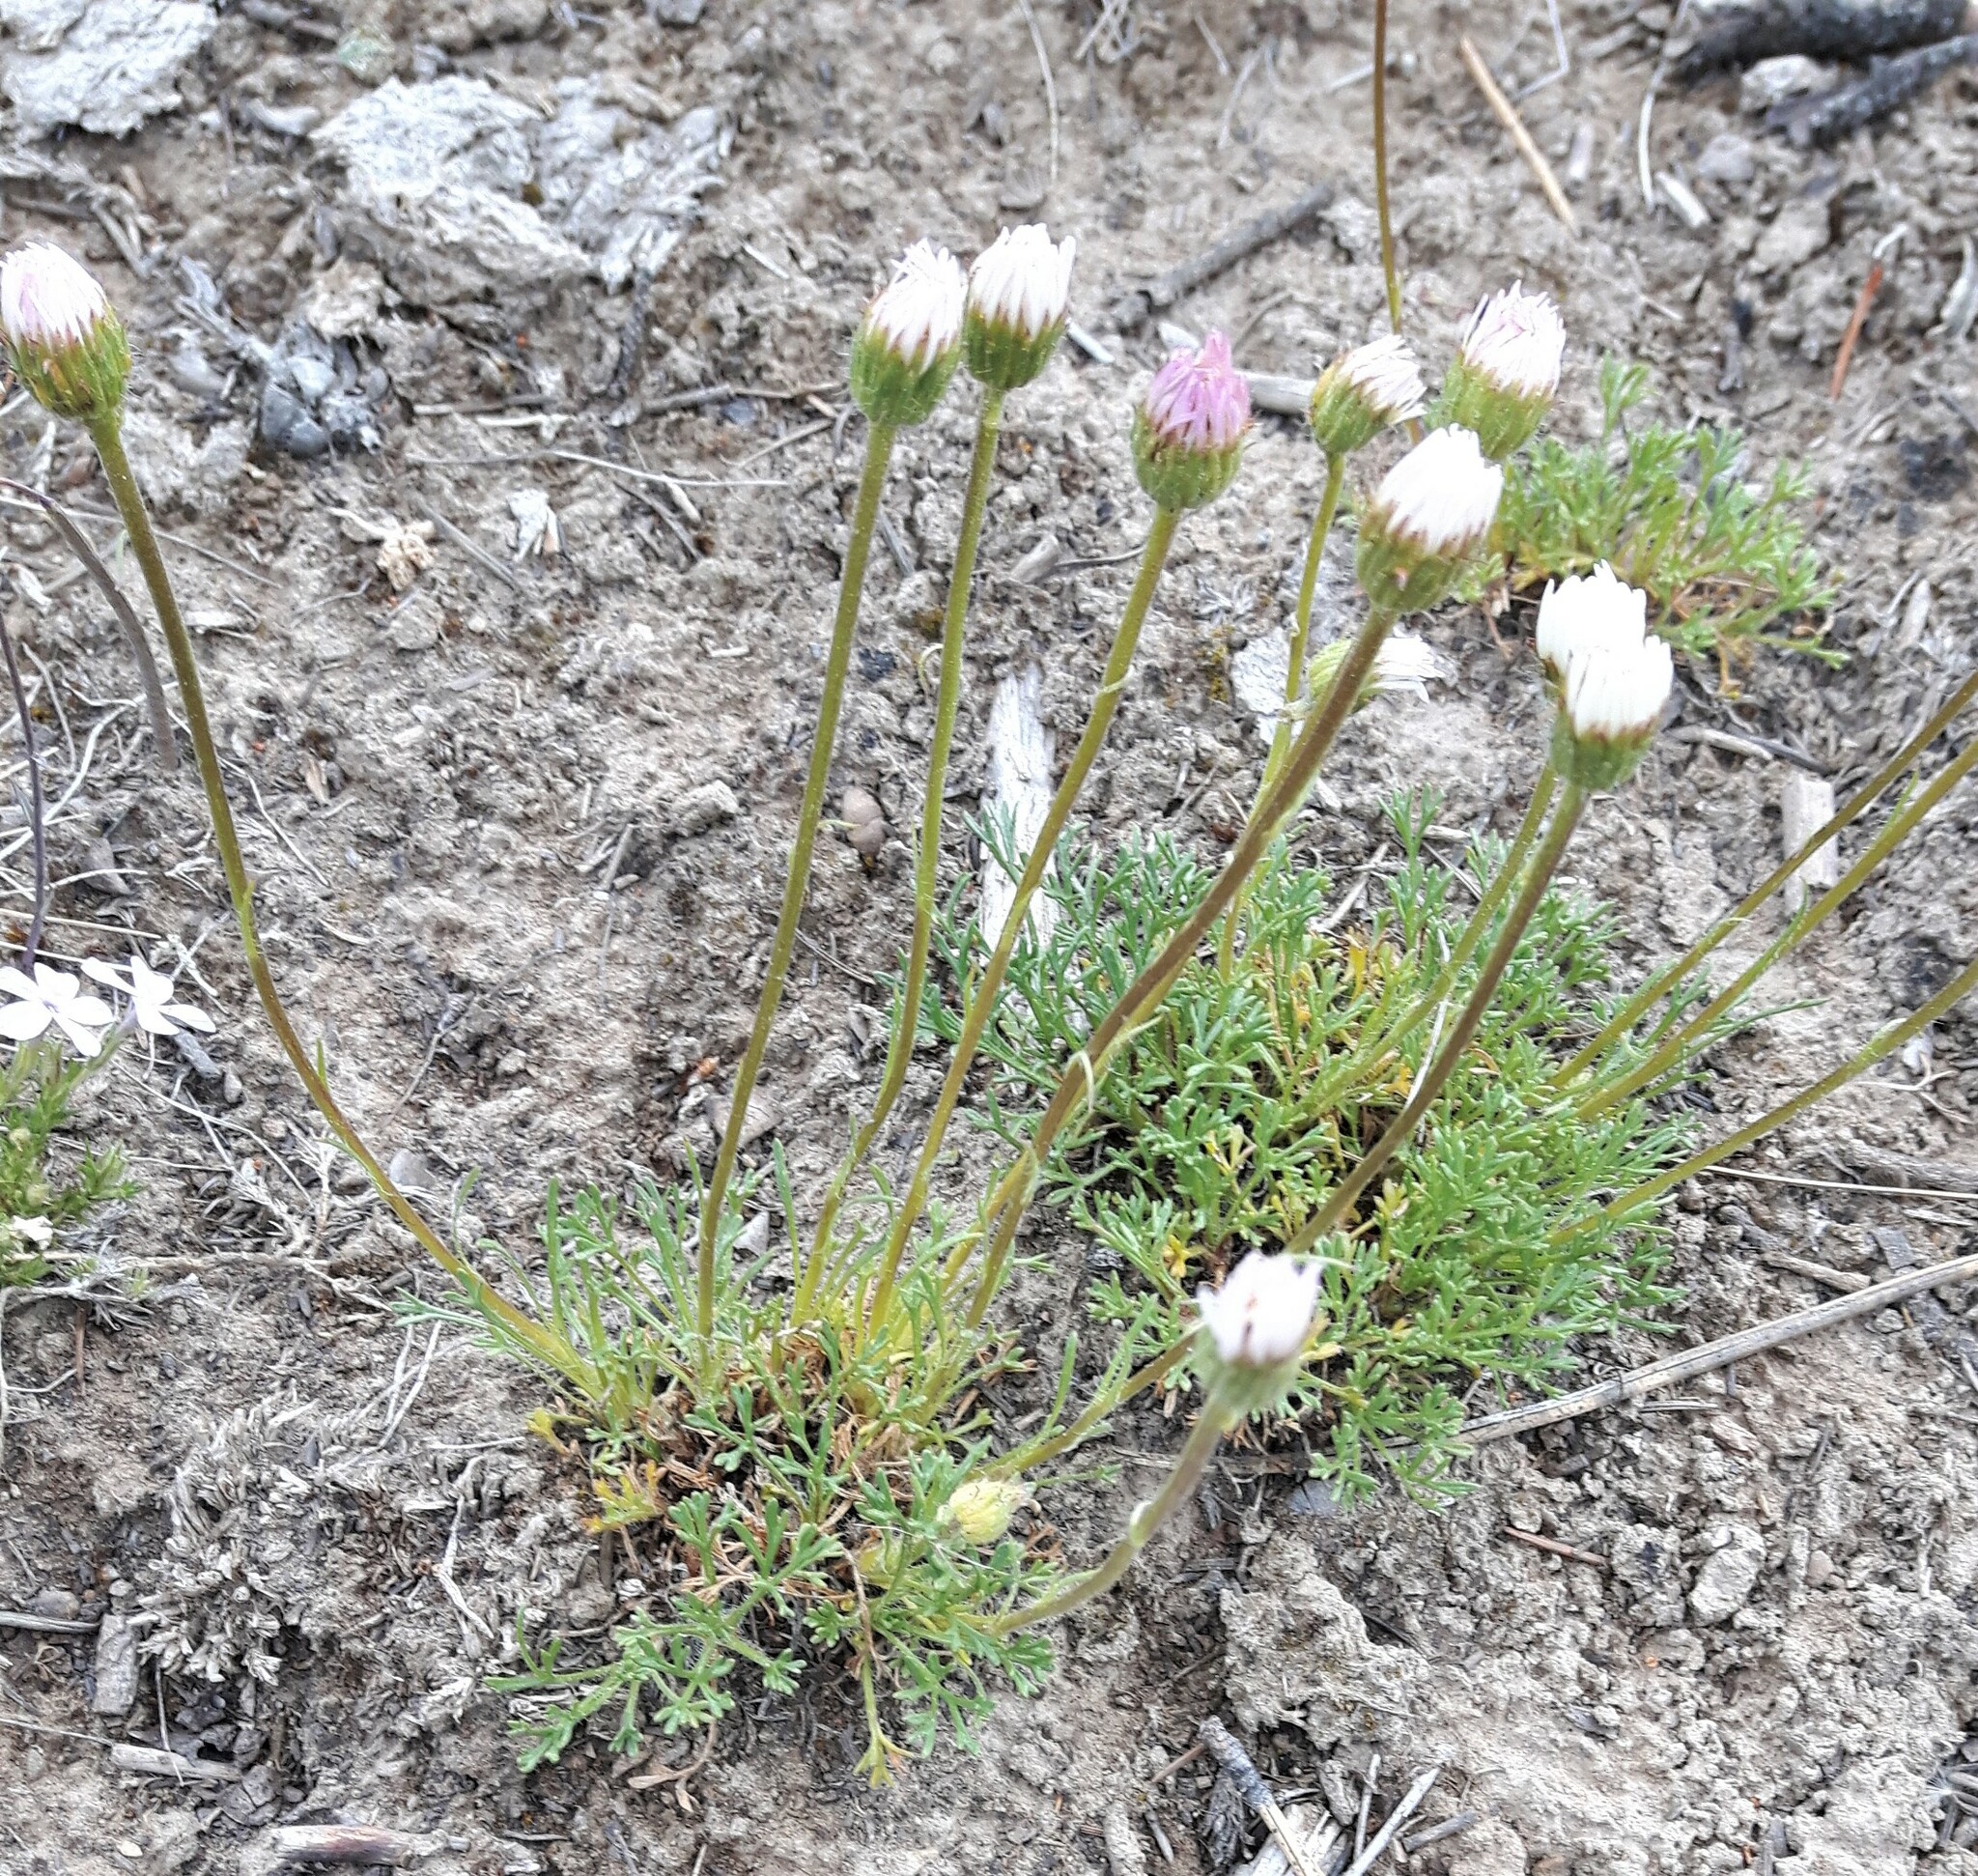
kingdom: Plantae
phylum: Tracheophyta
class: Magnoliopsida
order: Asterales
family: Asteraceae
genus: Erigeron
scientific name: Erigeron compositus
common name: Dwarf mountain fleabane
